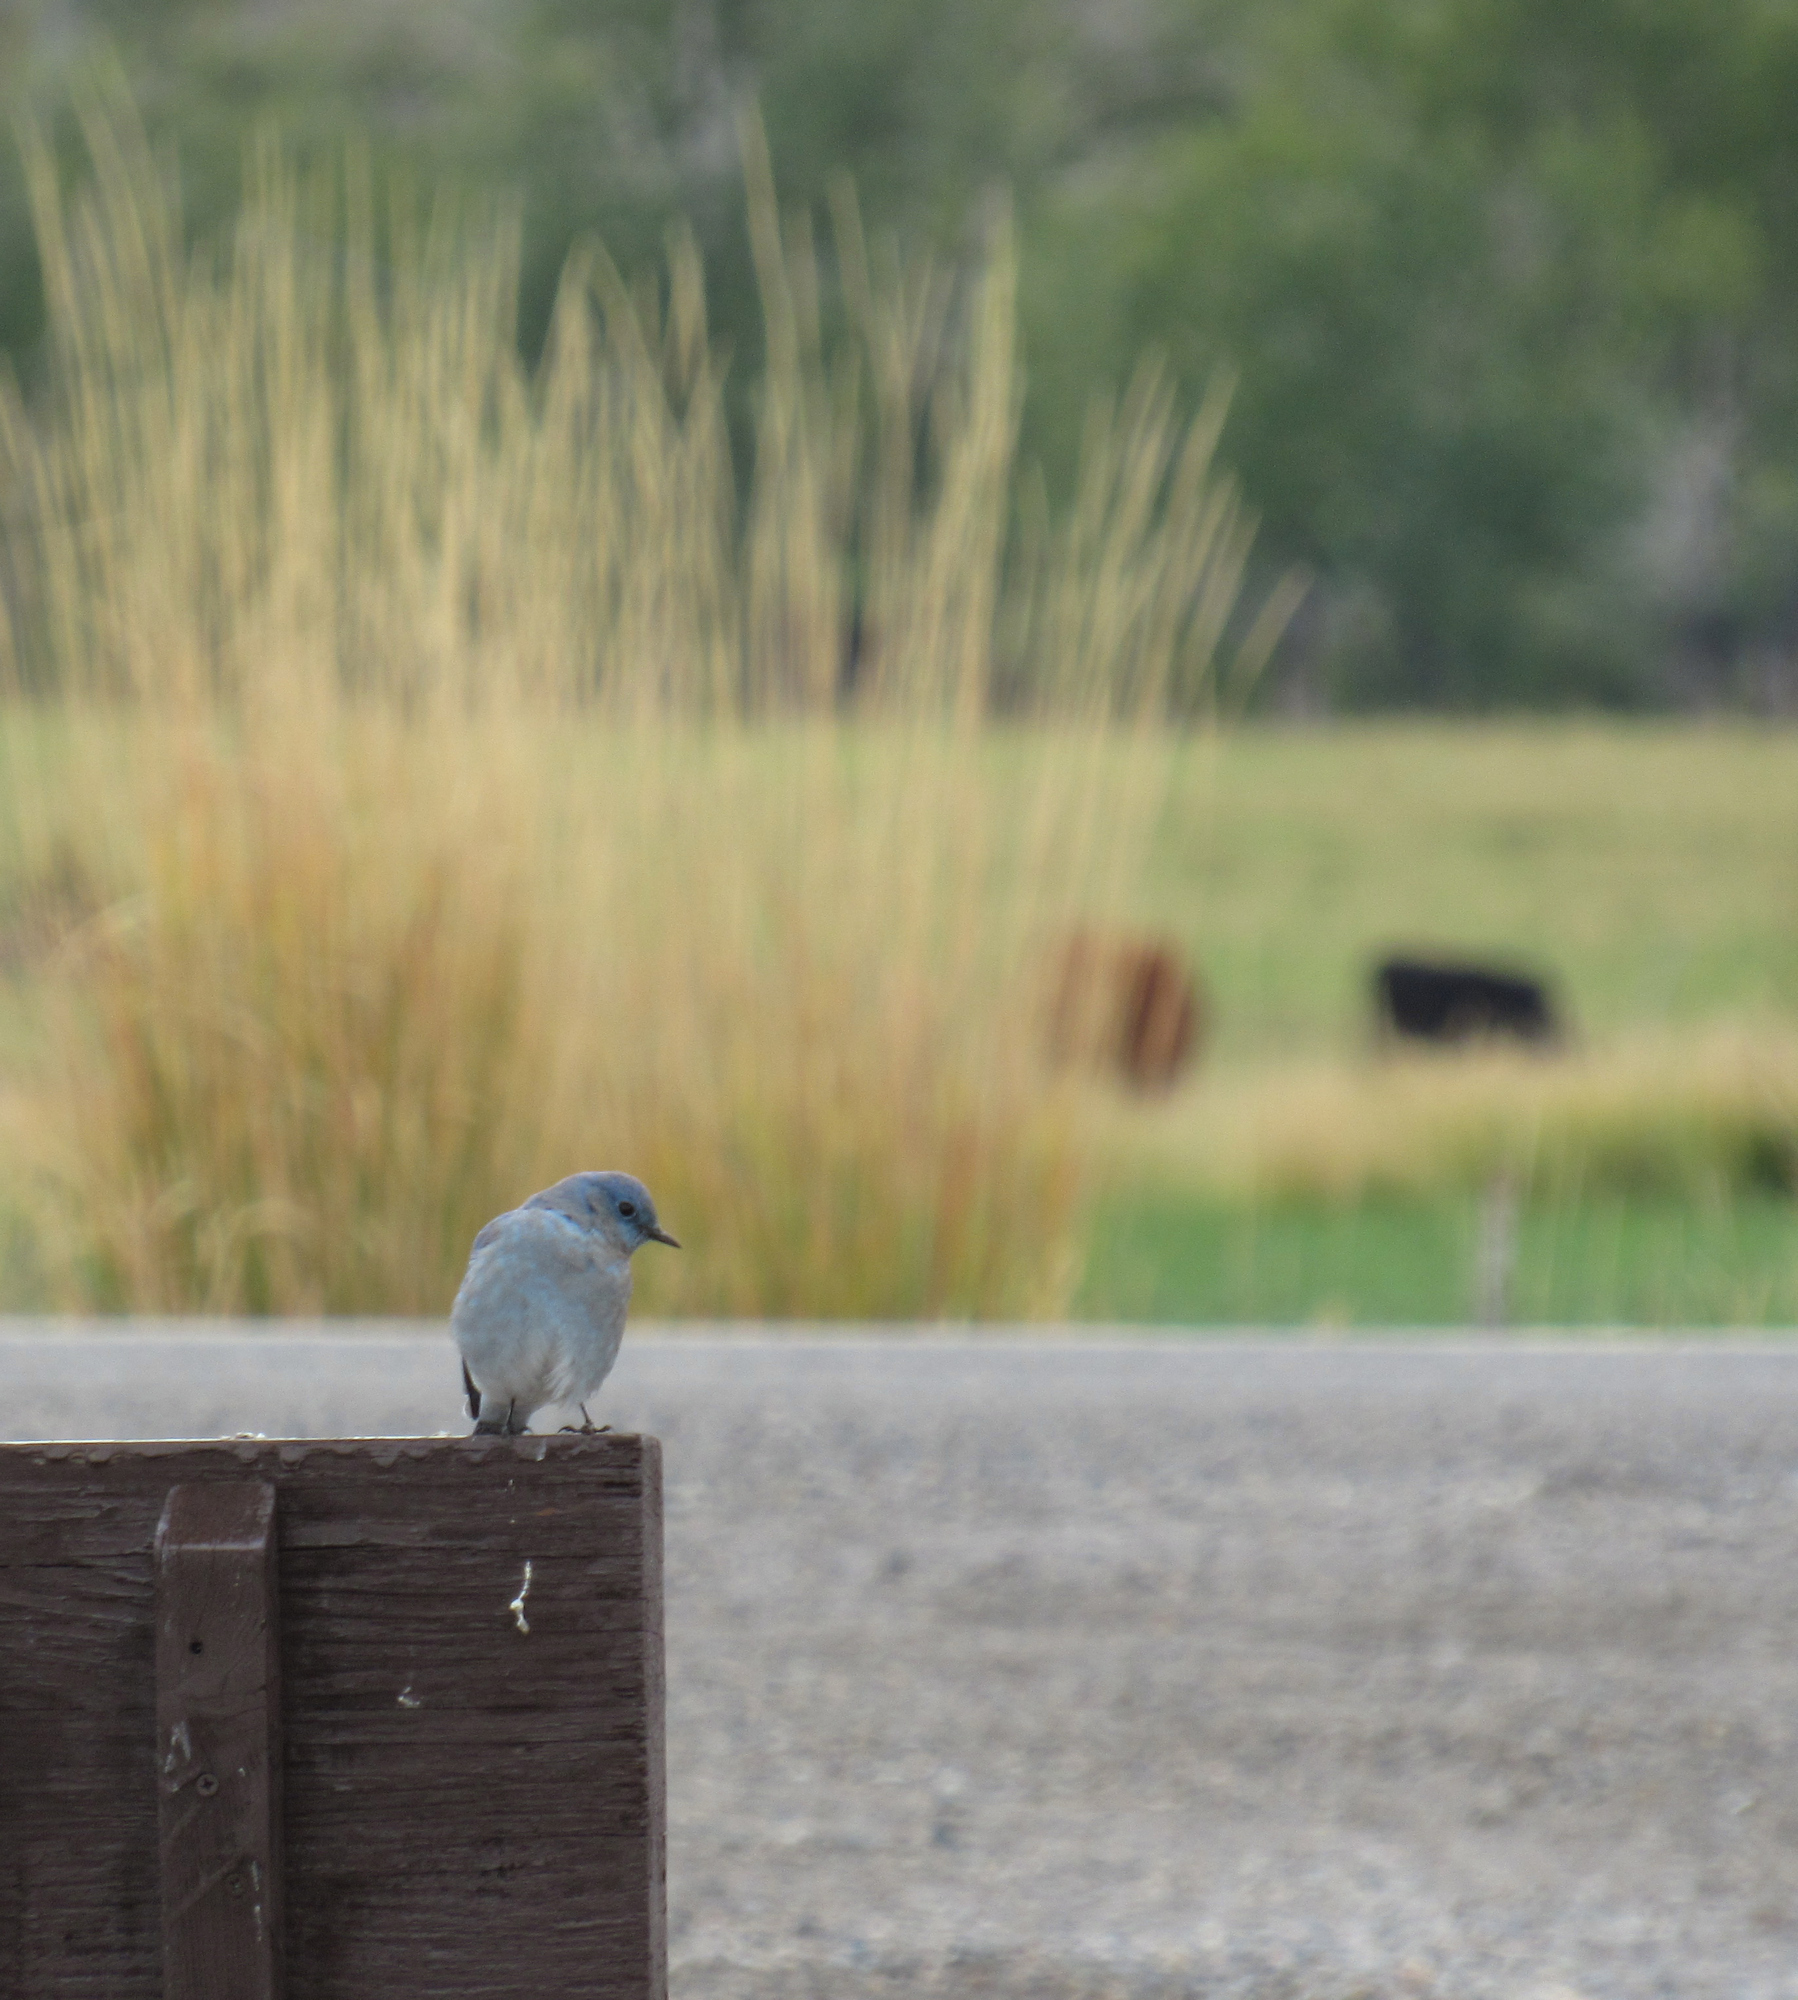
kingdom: Animalia
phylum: Chordata
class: Aves
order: Passeriformes
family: Turdidae
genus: Sialia
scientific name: Sialia currucoides
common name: Mountain bluebird
